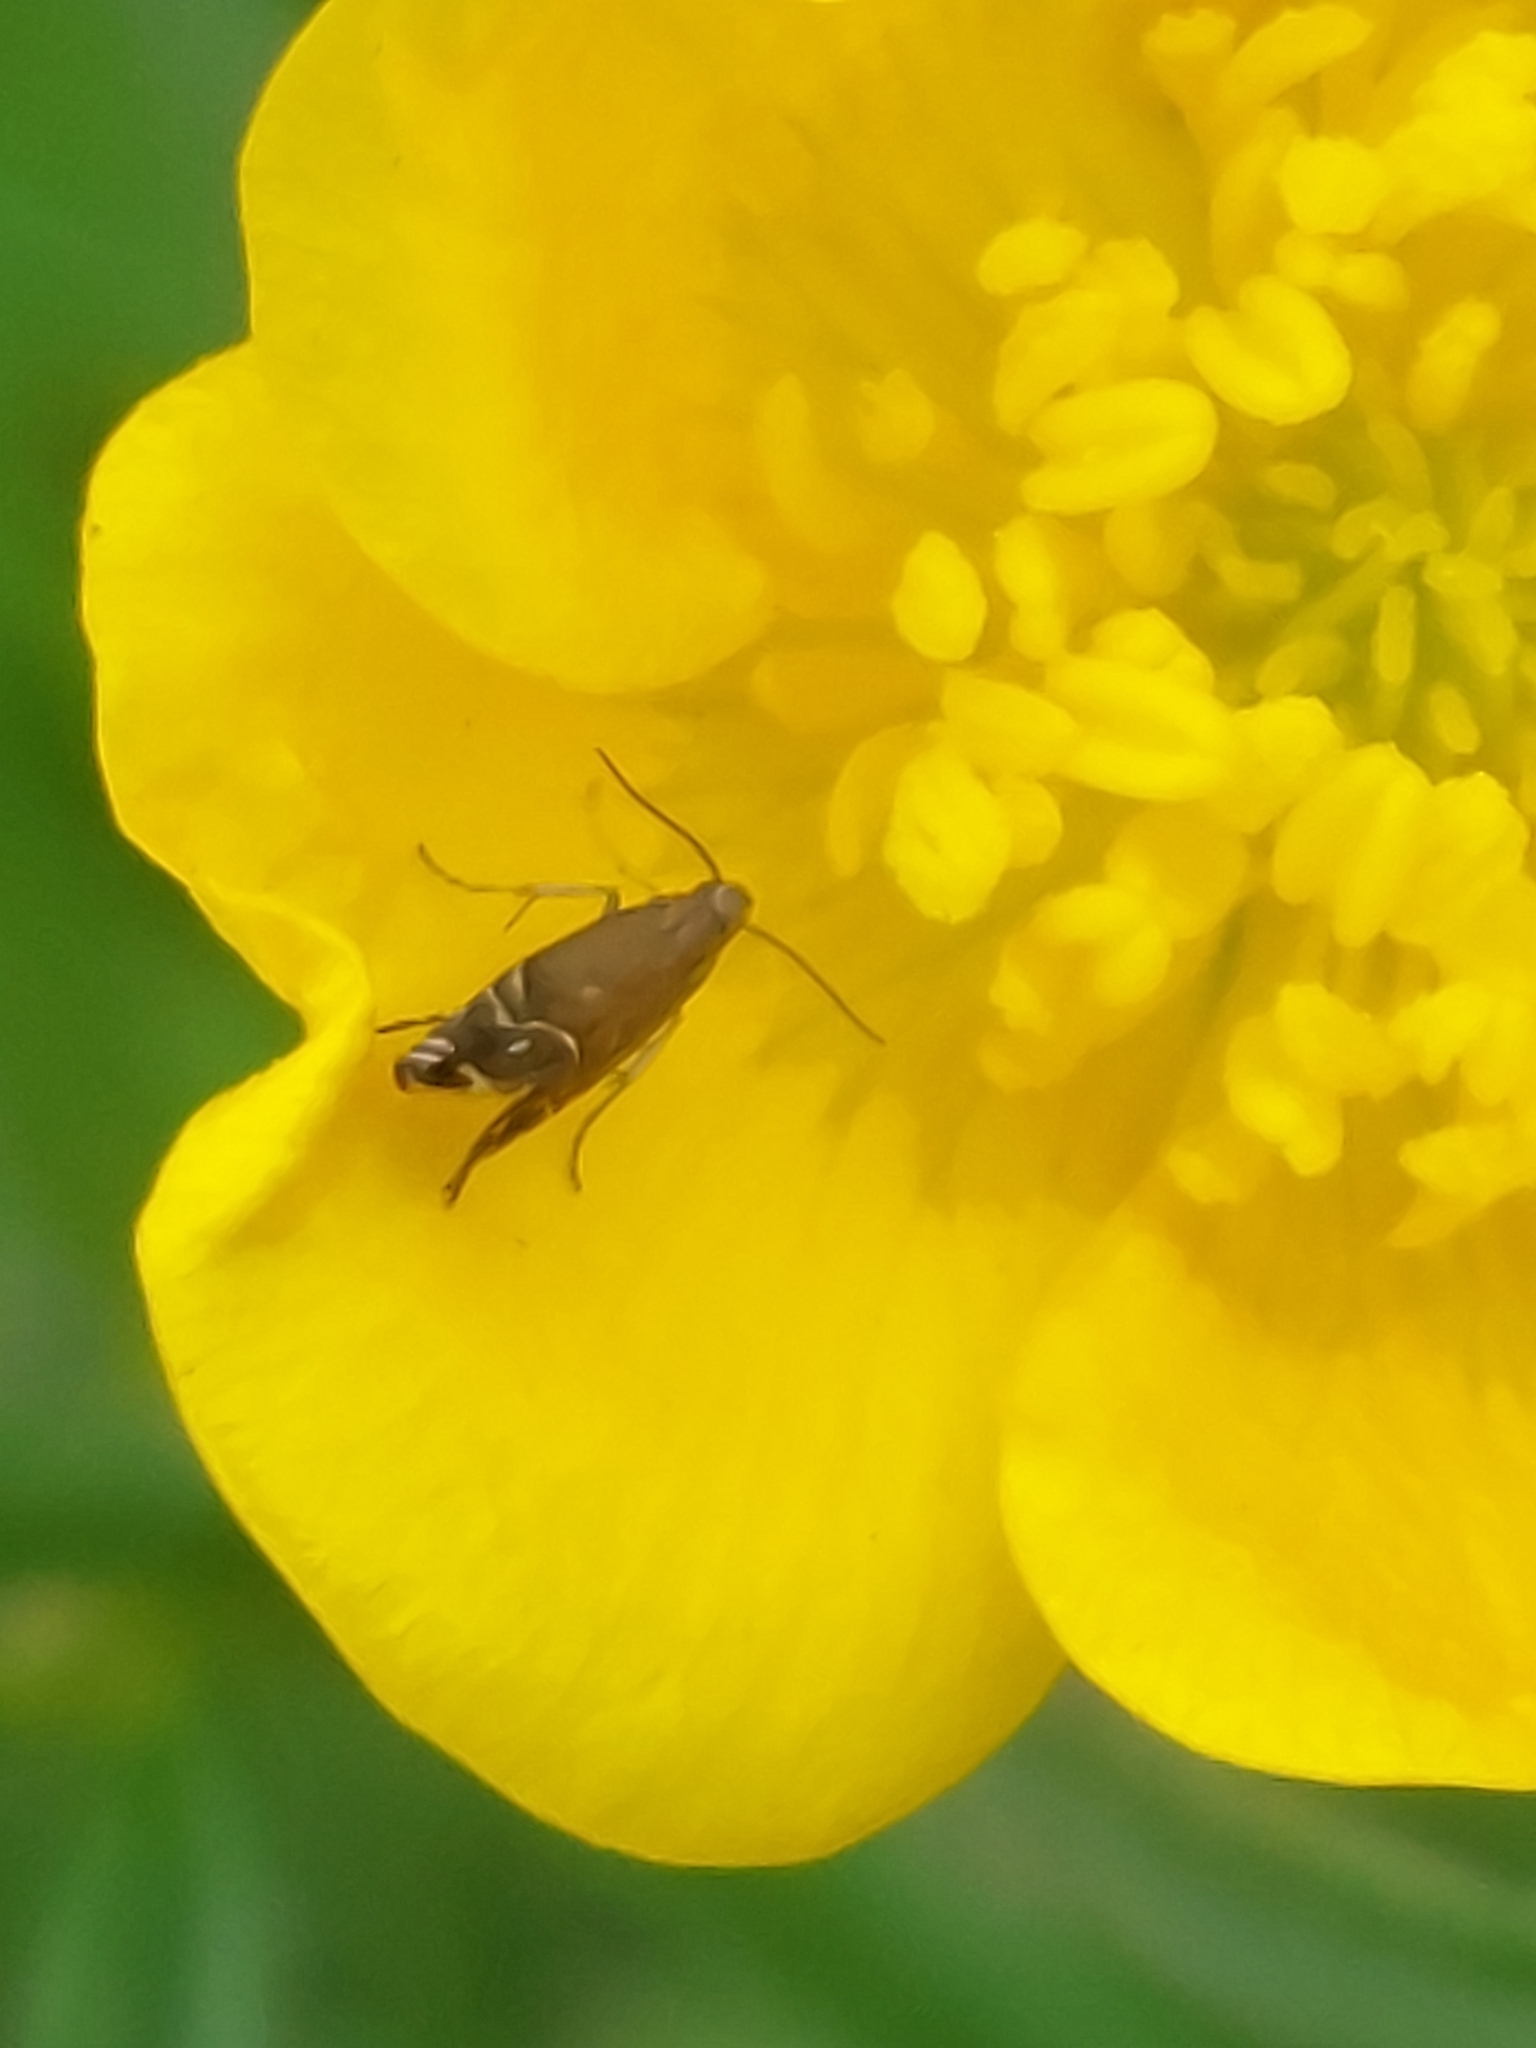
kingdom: Animalia
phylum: Arthropoda
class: Insecta
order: Lepidoptera
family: Glyphipterigidae
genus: Glyphipterix
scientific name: Glyphipterix simpliciella
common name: Cocksfoot moth
